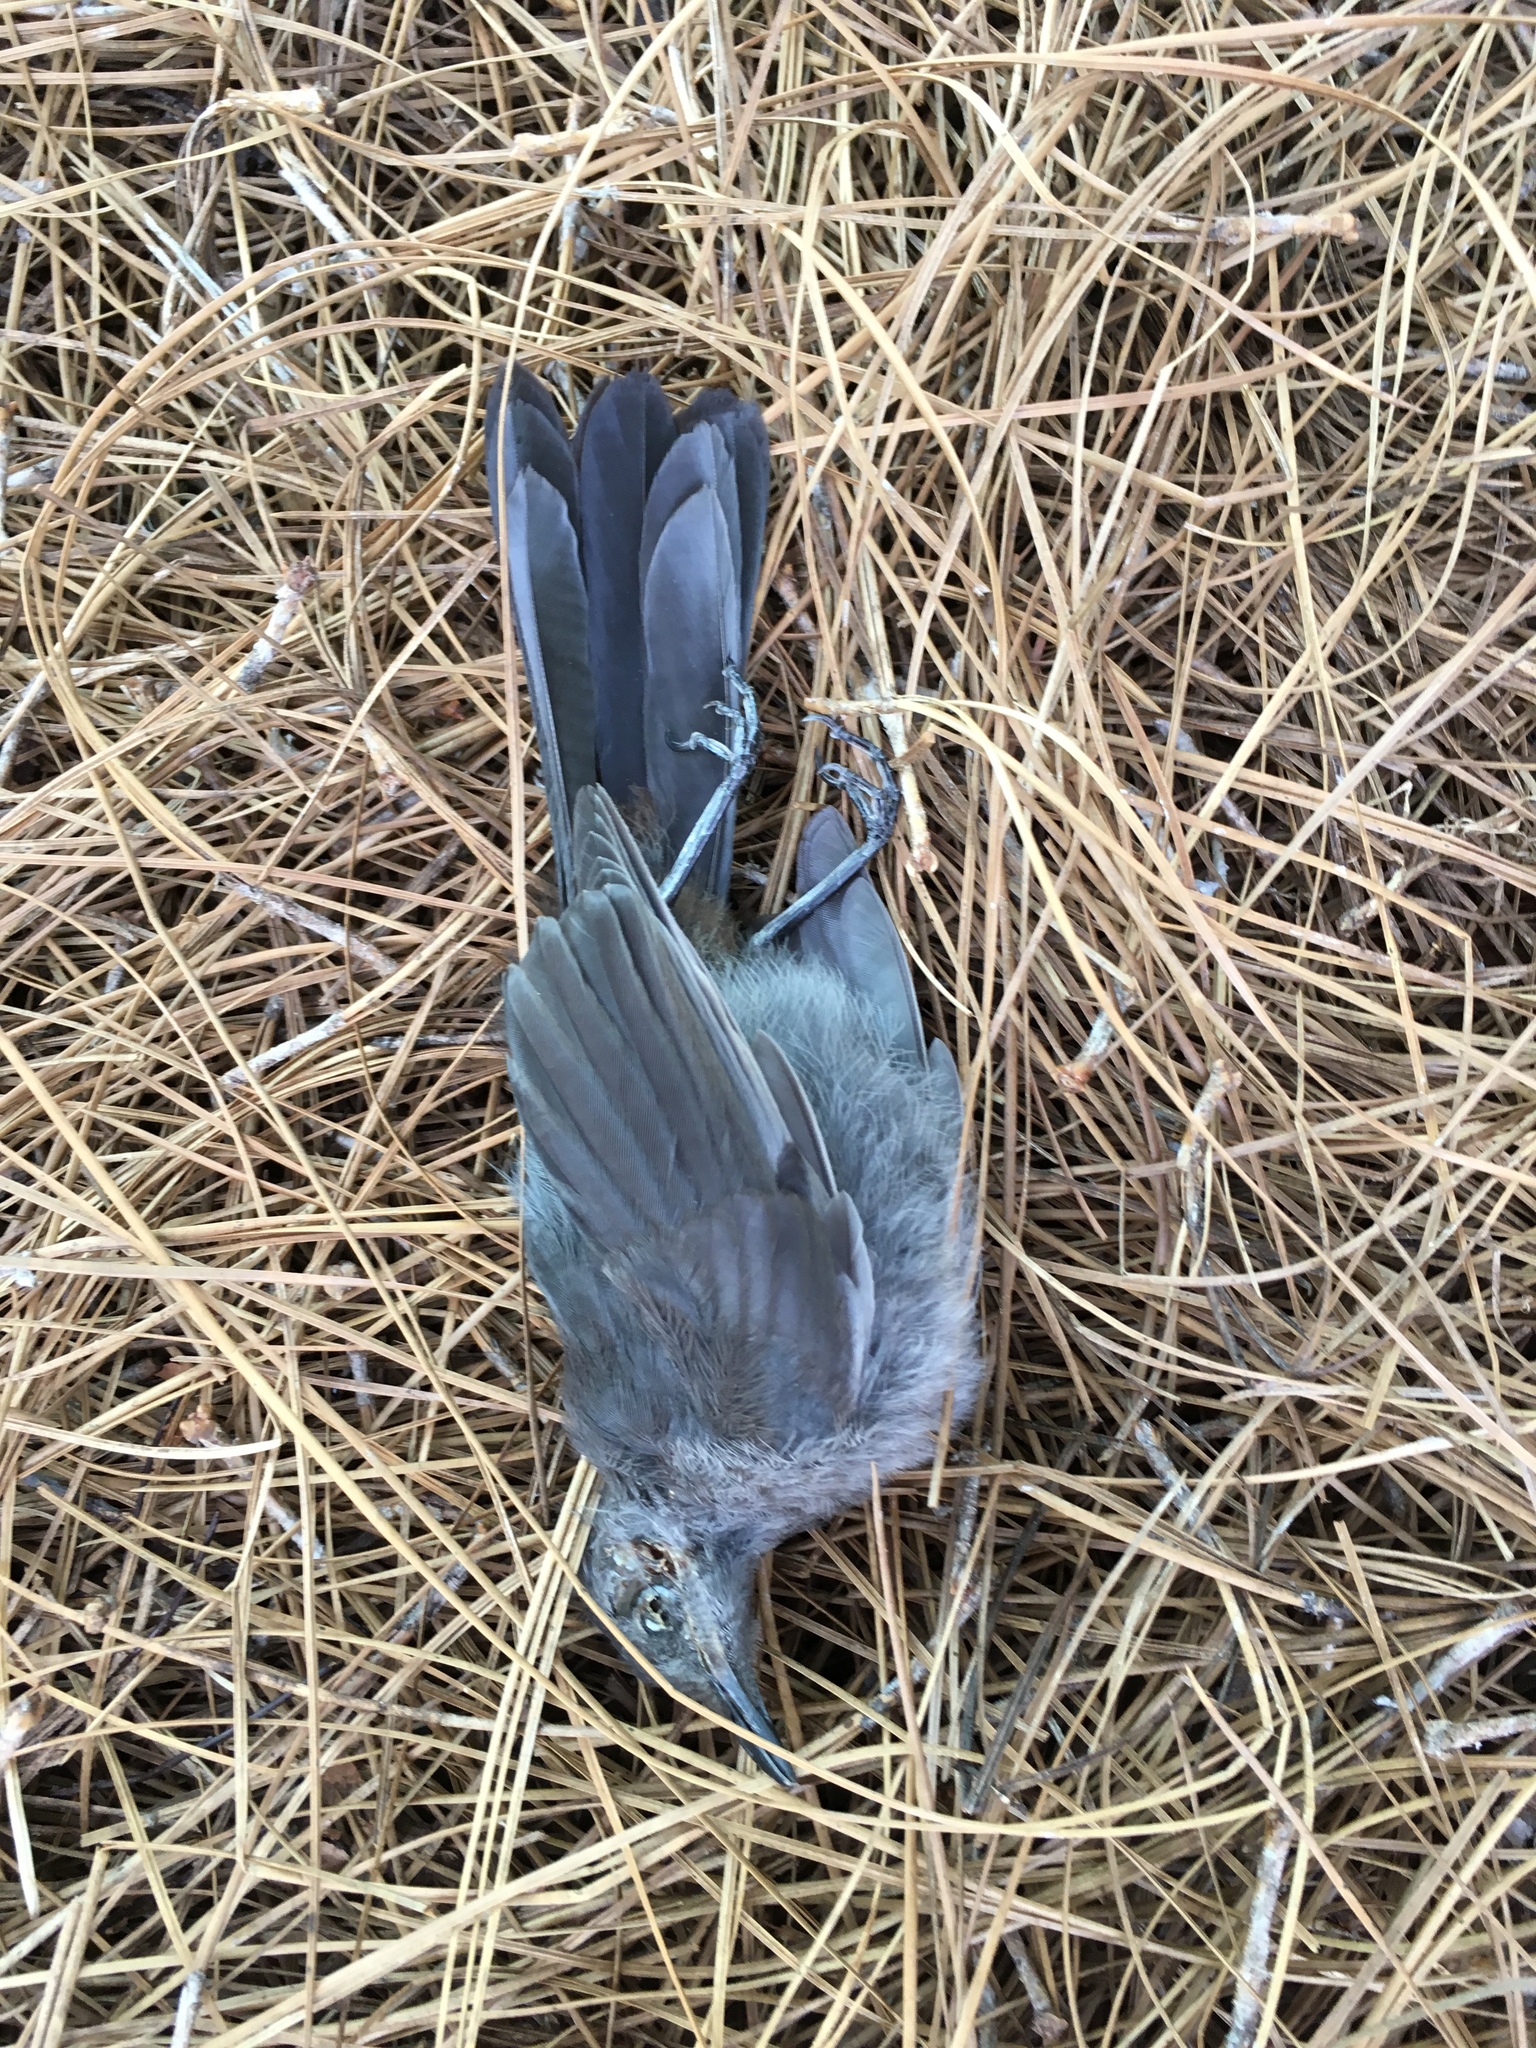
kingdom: Animalia
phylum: Chordata
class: Aves
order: Passeriformes
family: Mimidae
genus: Dumetella
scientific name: Dumetella carolinensis
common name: Gray catbird
